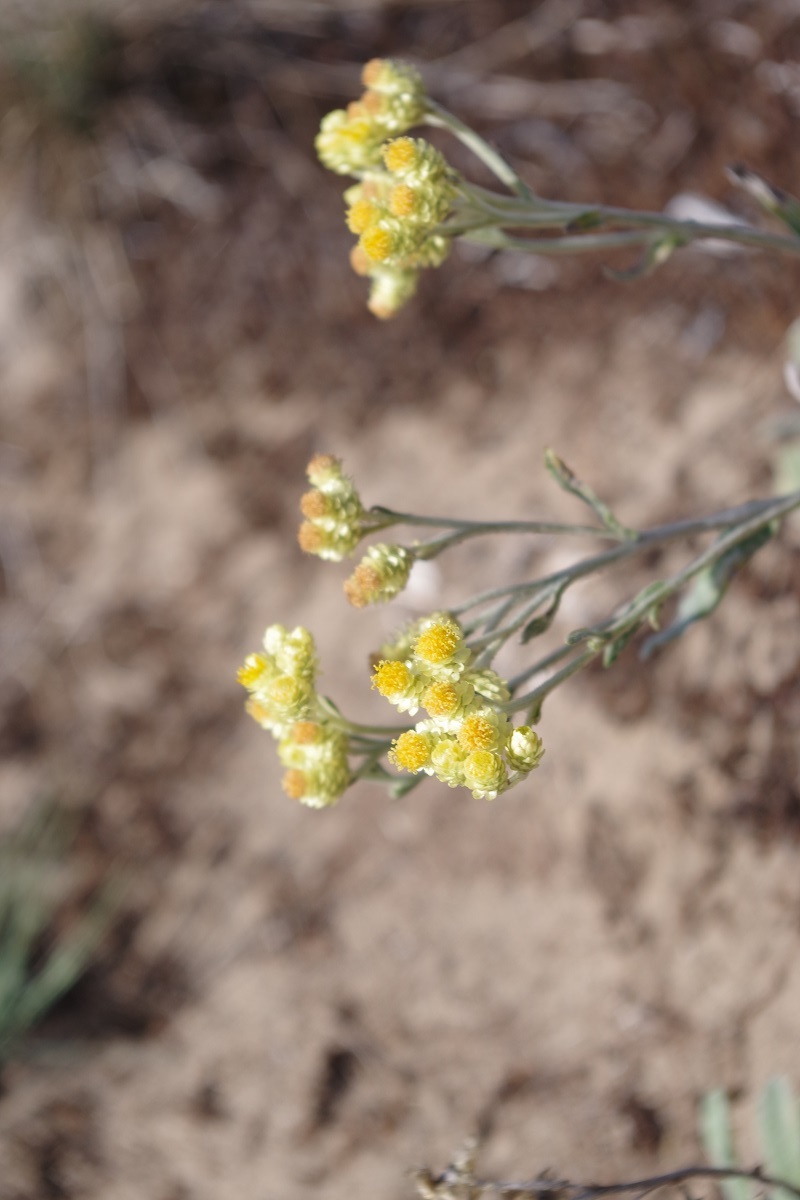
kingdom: Plantae
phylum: Tracheophyta
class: Magnoliopsida
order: Asterales
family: Asteraceae
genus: Helichrysum
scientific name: Helichrysum arenarium
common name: Strawflower
